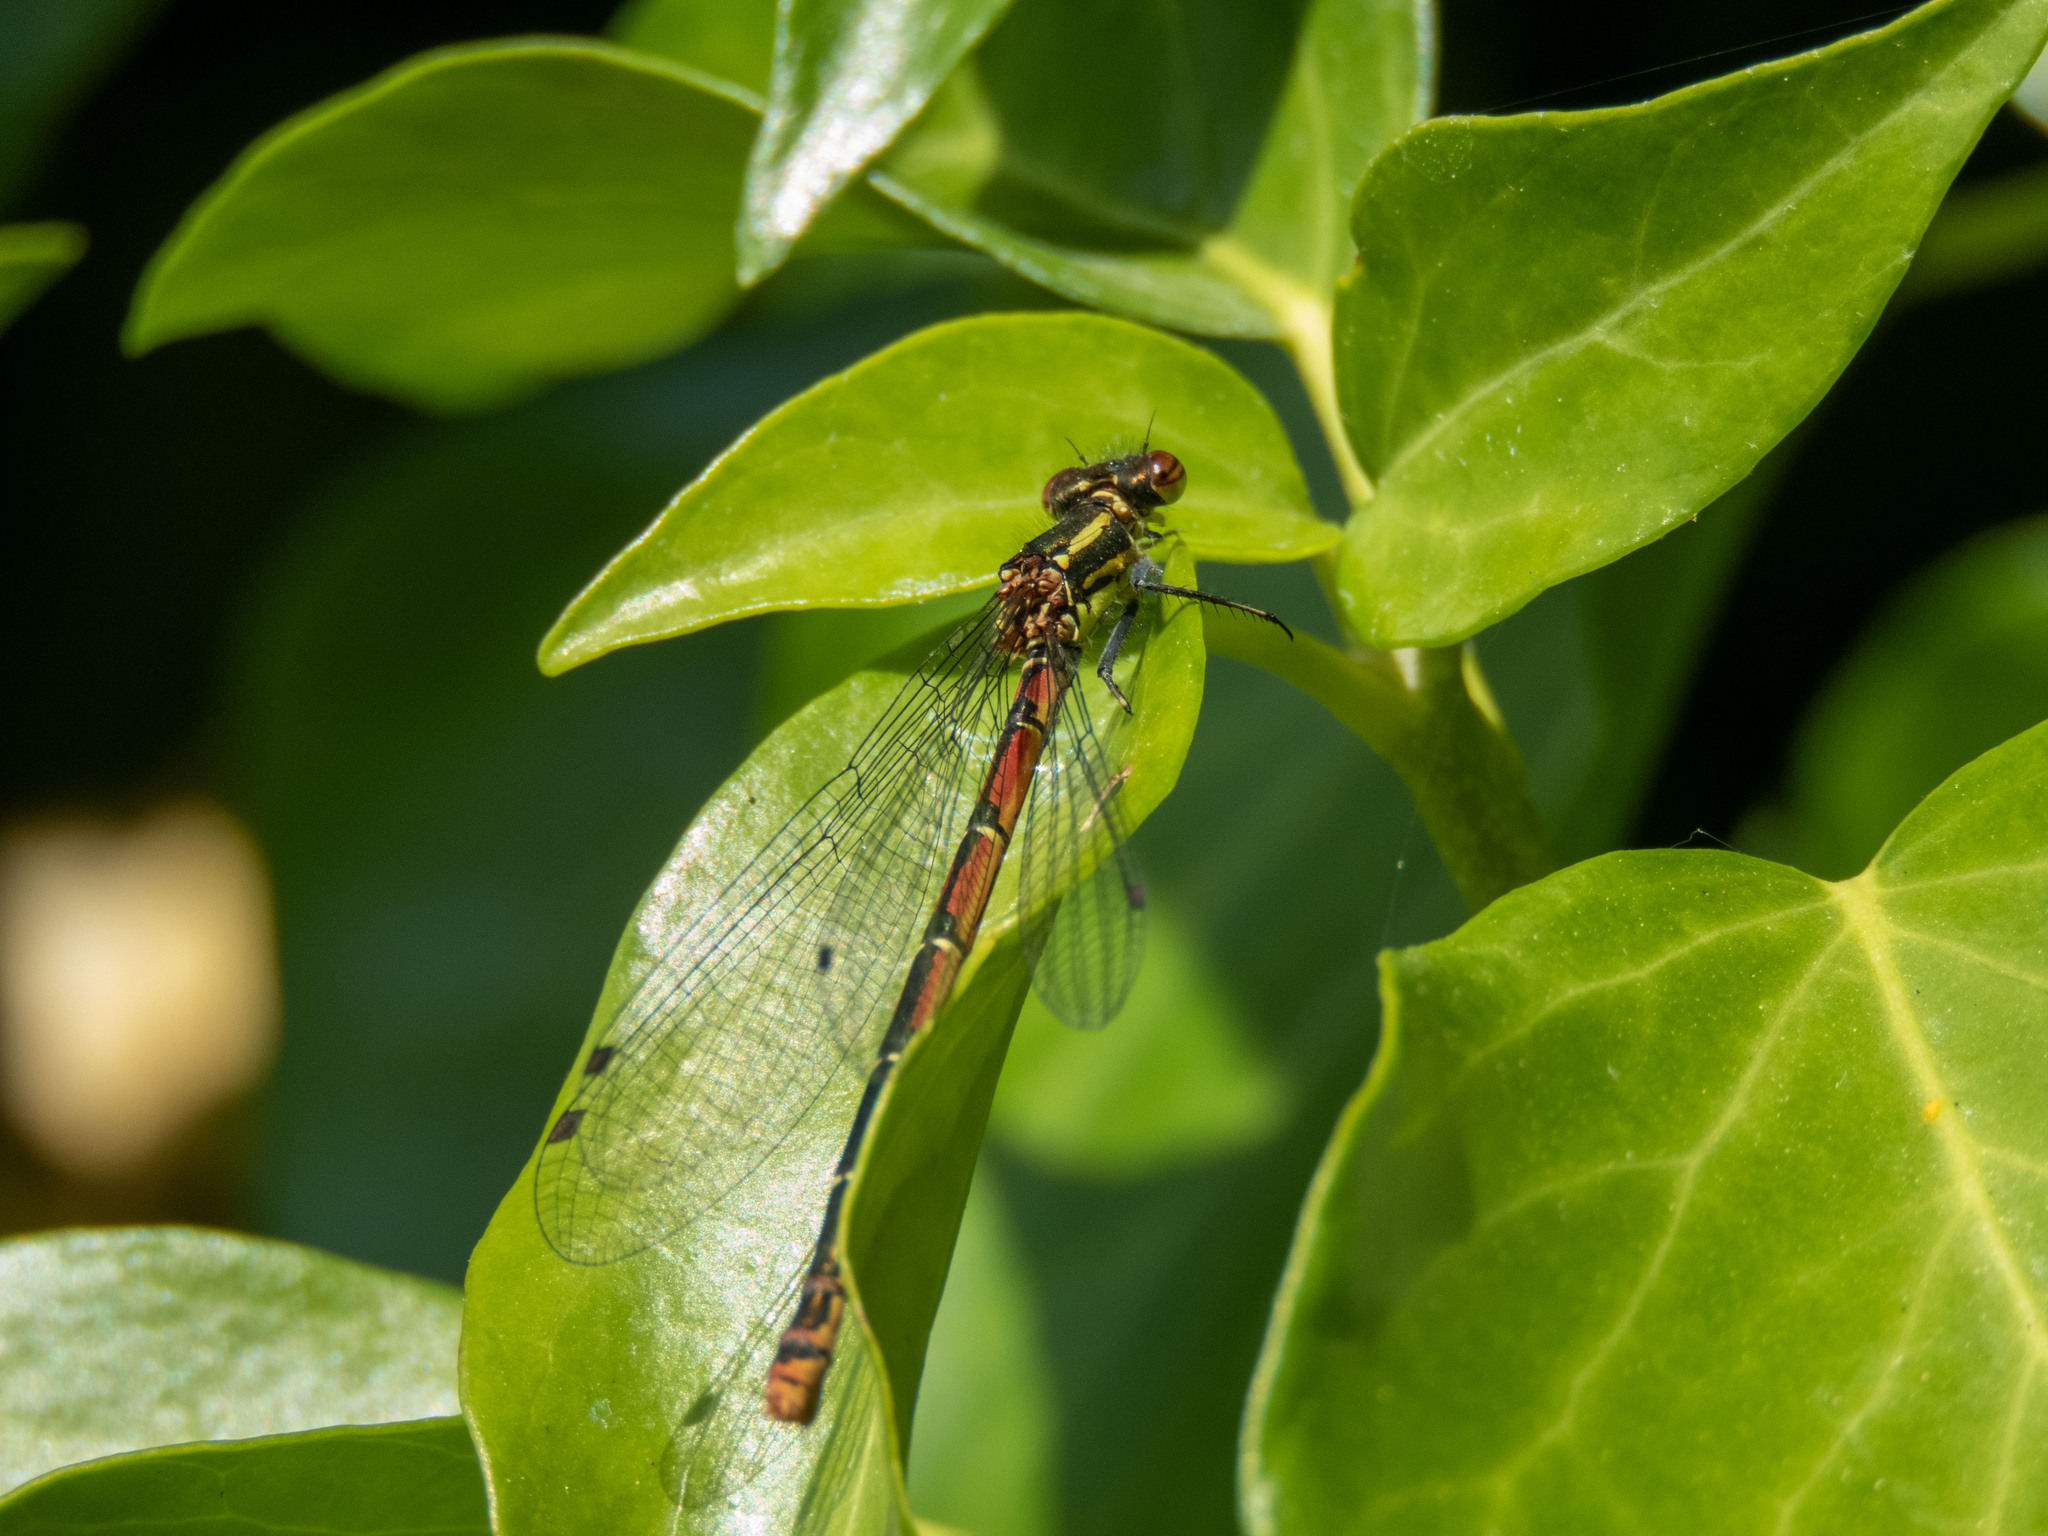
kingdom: Animalia
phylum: Arthropoda
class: Insecta
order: Odonata
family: Coenagrionidae
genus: Pyrrhosoma
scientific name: Pyrrhosoma nymphula
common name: Large red damsel
